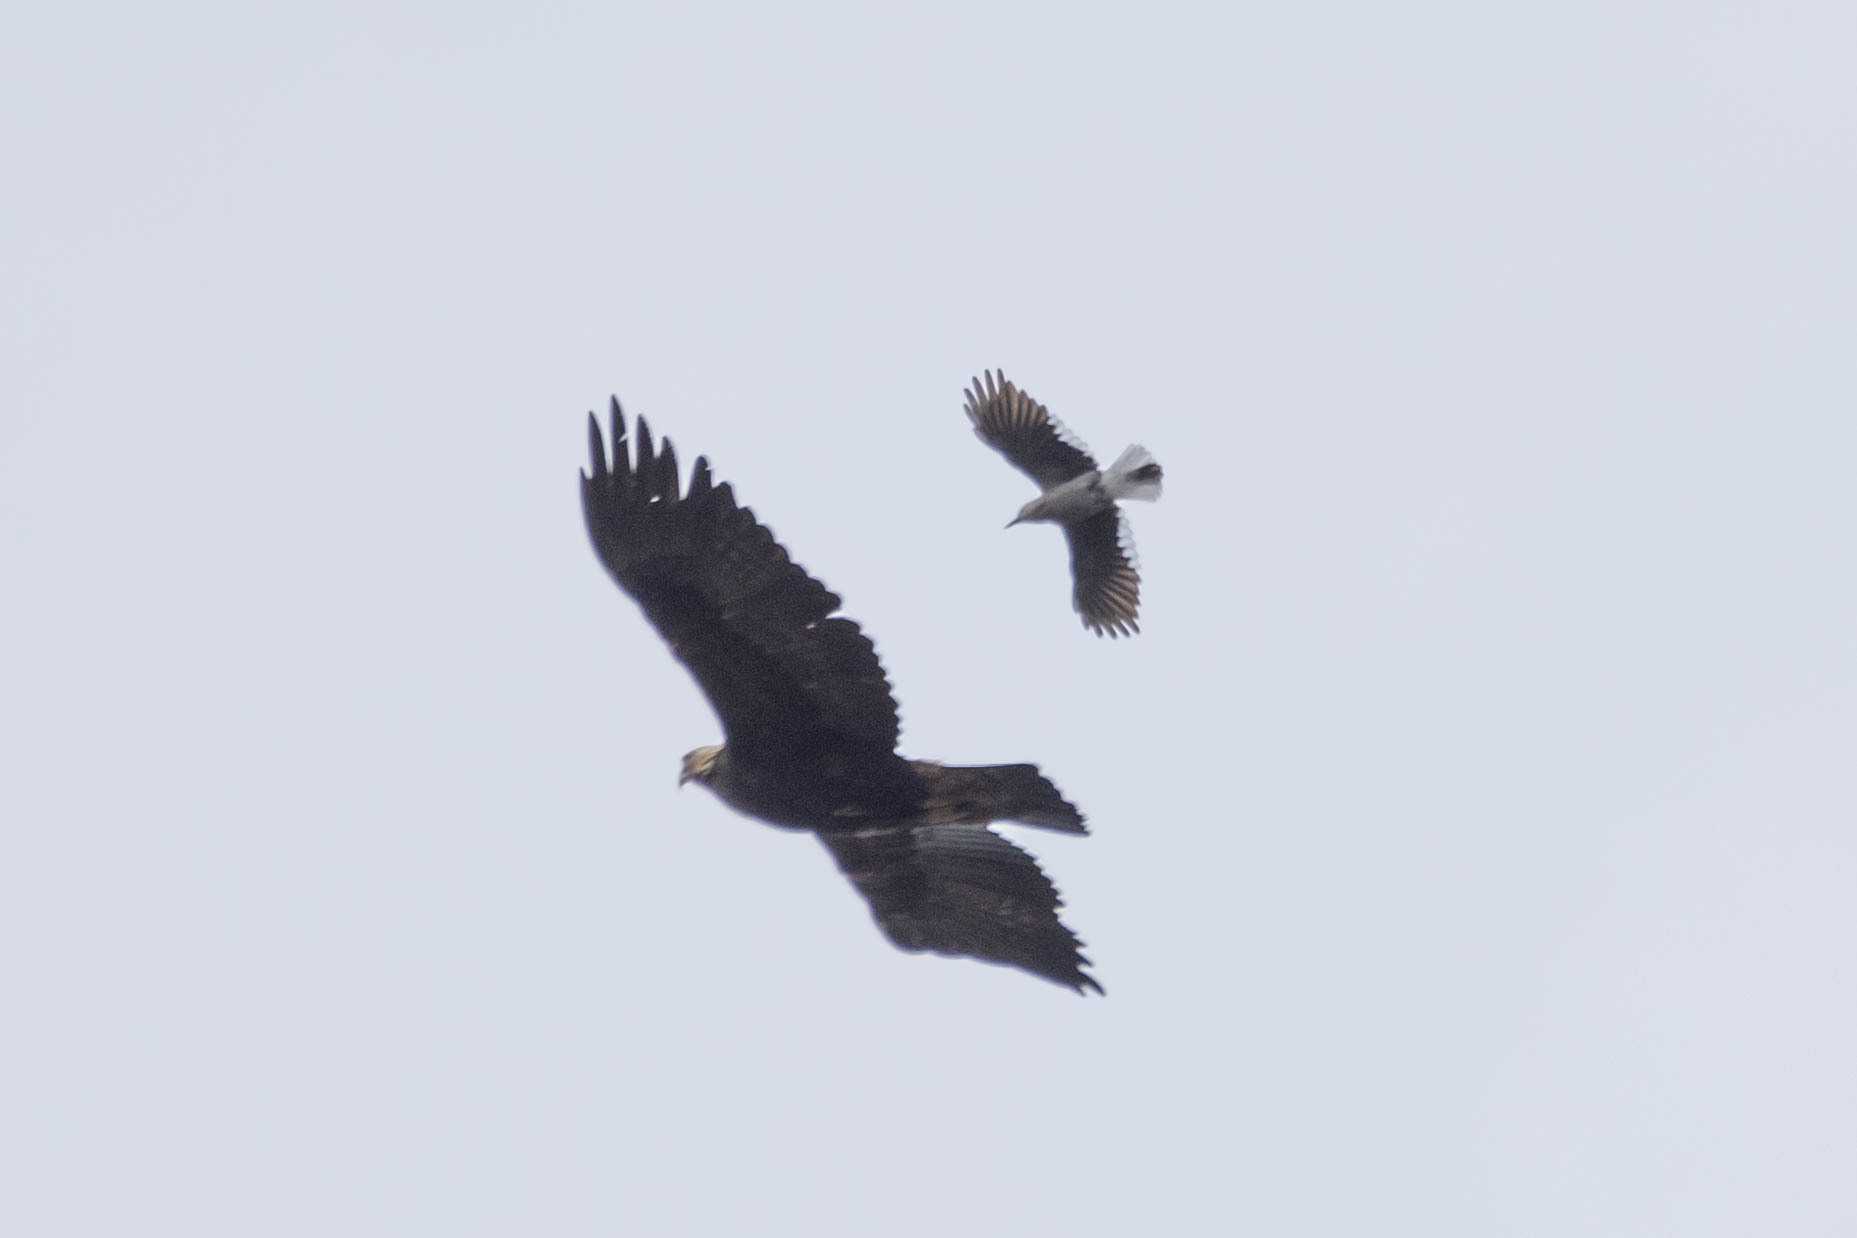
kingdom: Animalia
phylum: Chordata
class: Aves
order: Passeriformes
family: Corvidae
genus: Nucifraga
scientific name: Nucifraga columbiana
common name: Clark's nutcracker
